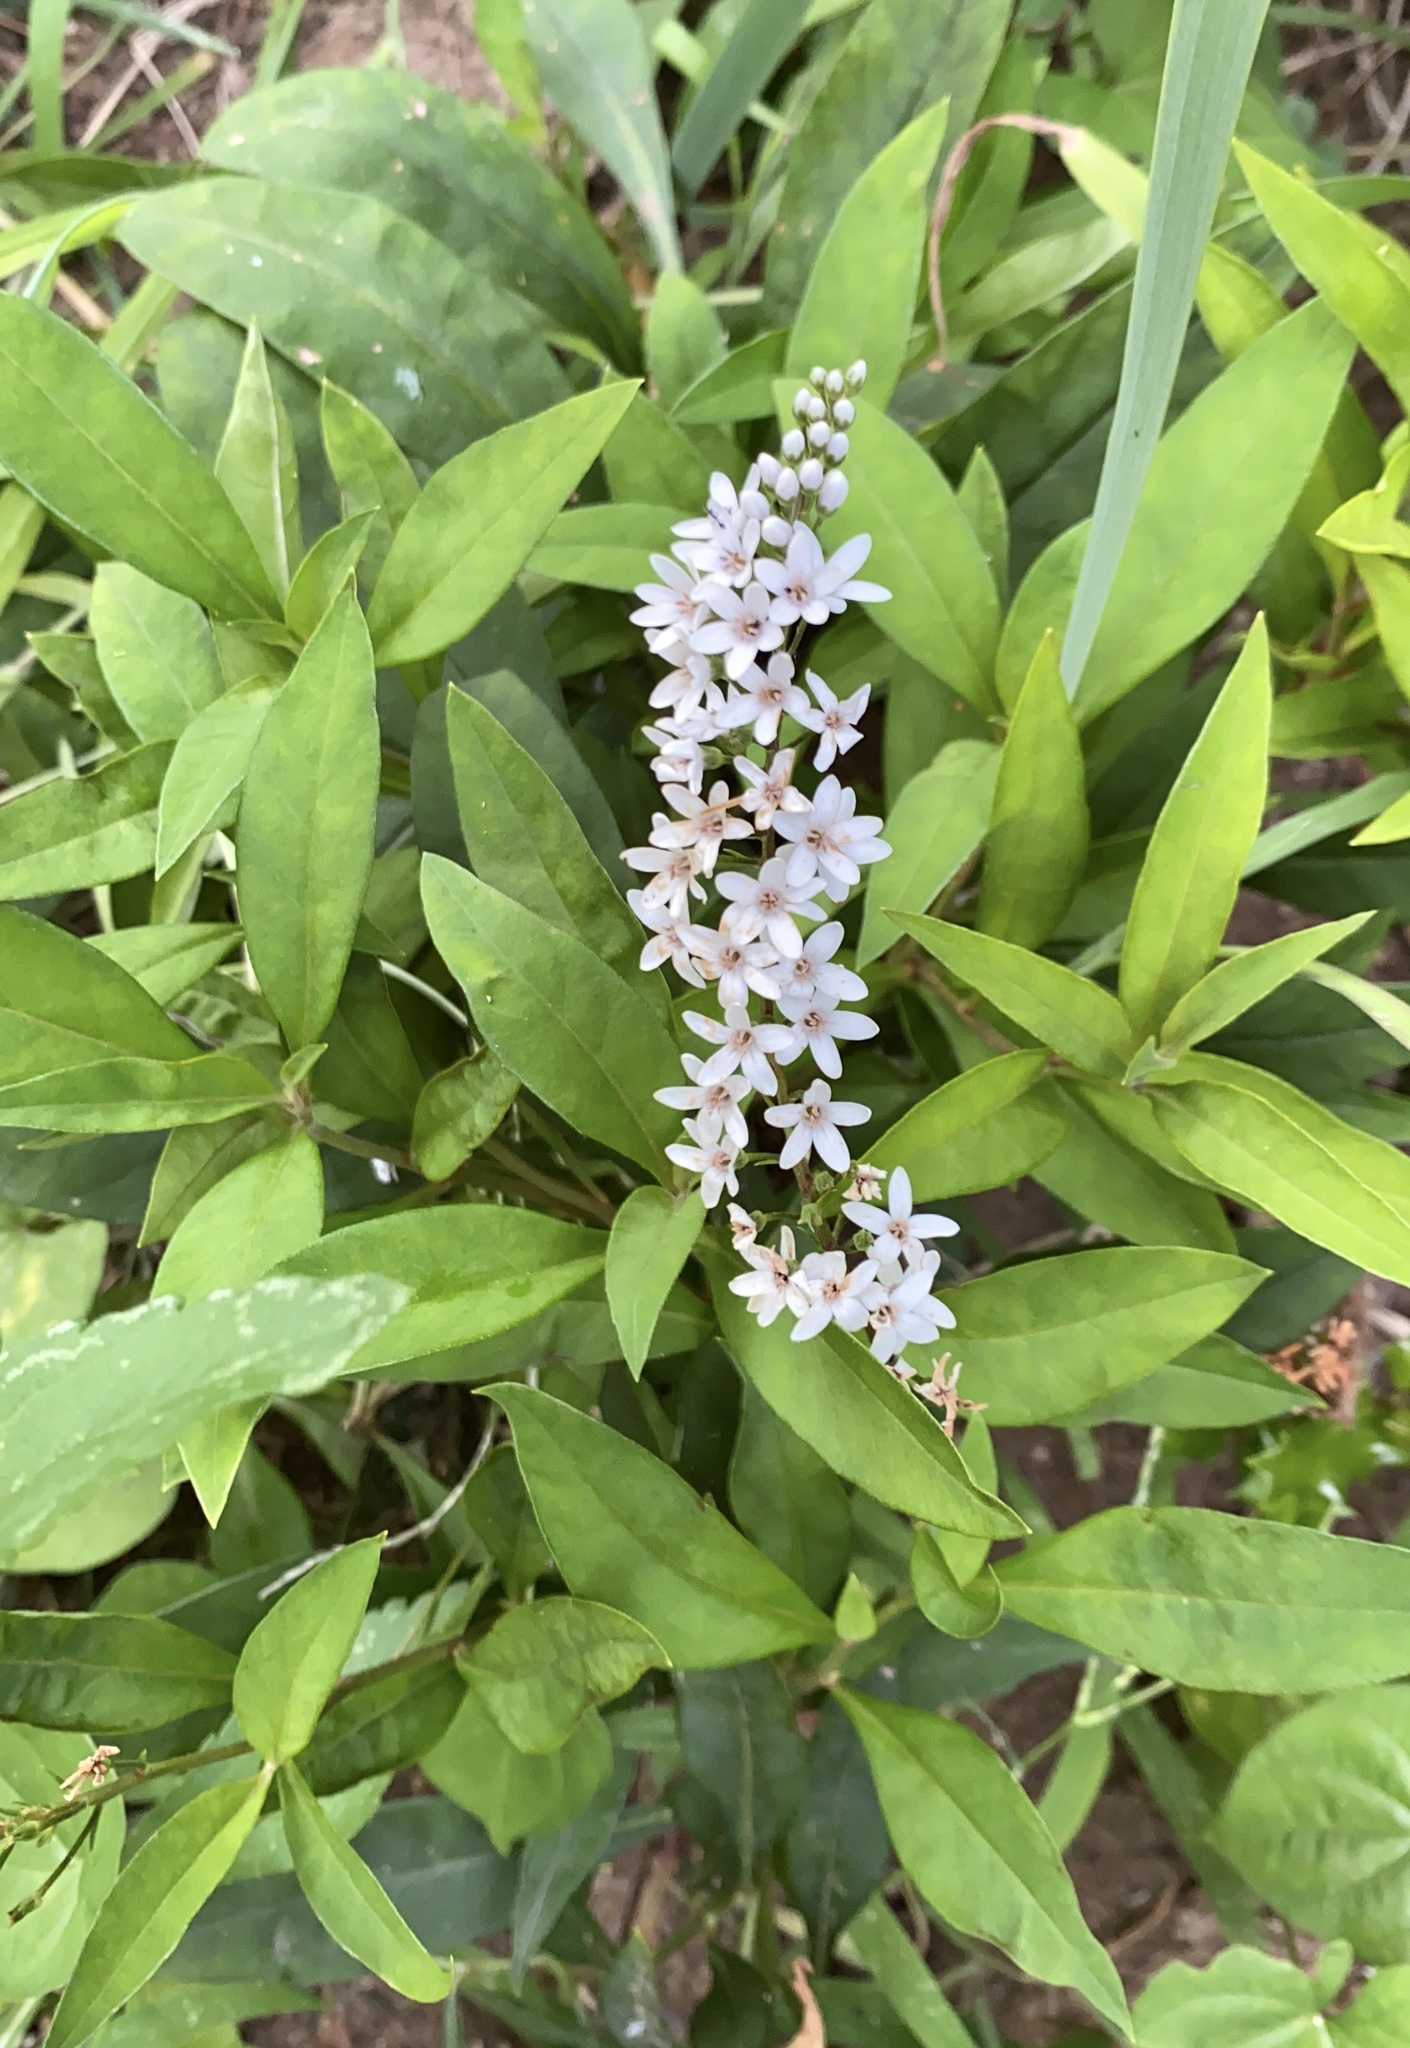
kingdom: Plantae
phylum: Tracheophyta
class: Magnoliopsida
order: Ericales
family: Primulaceae
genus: Lysimachia
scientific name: Lysimachia clethroides
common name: Gooseneck loosestrife
